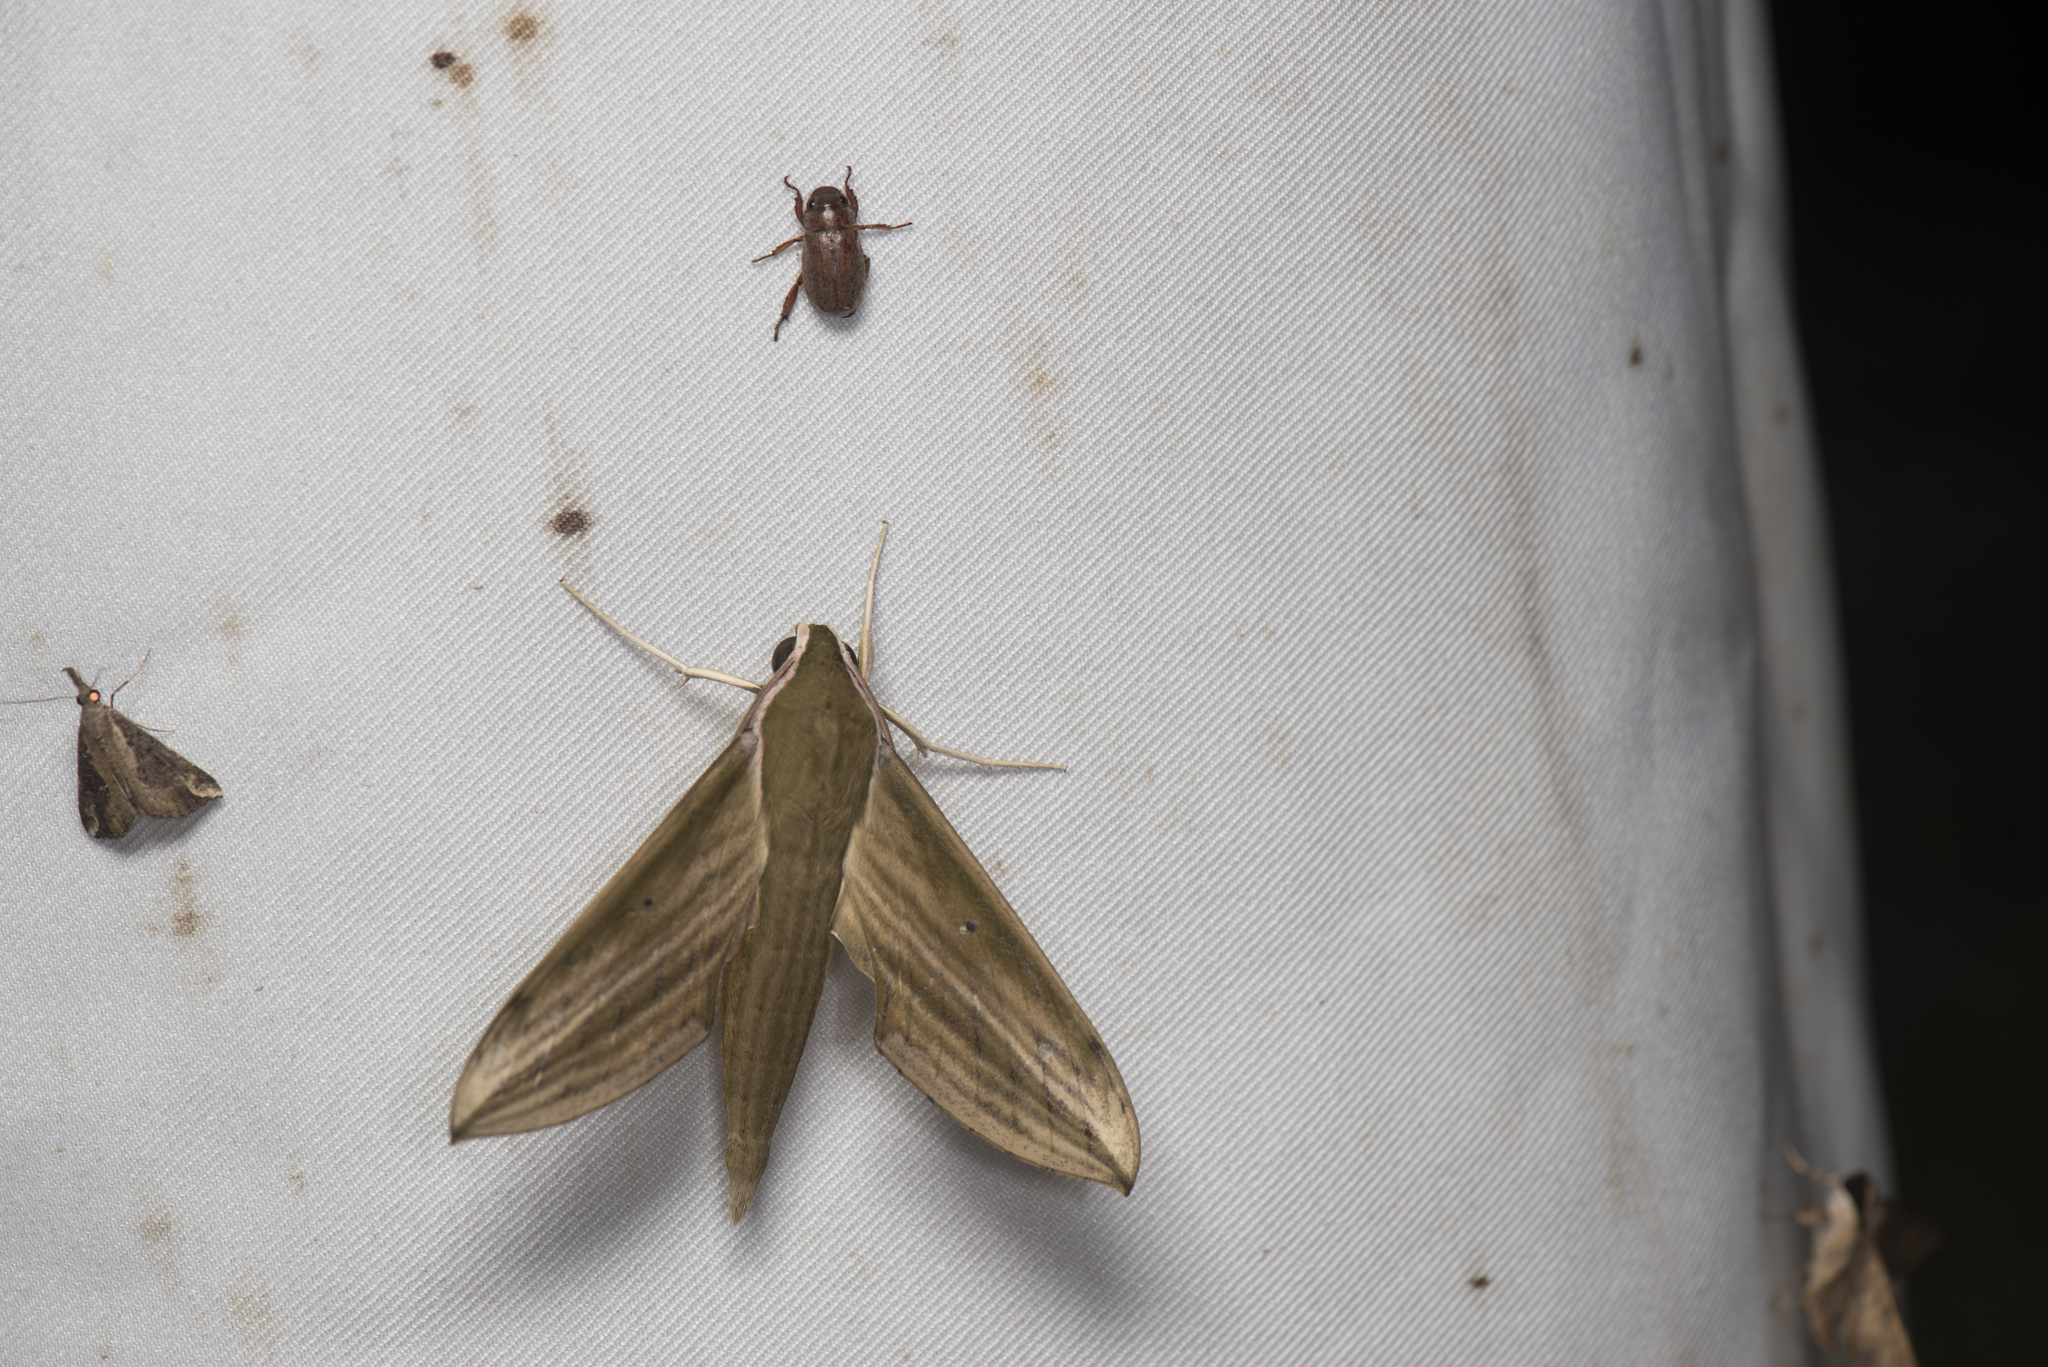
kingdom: Animalia
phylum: Arthropoda
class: Insecta
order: Lepidoptera
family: Sphingidae
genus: Cechetra
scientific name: Cechetra minor
